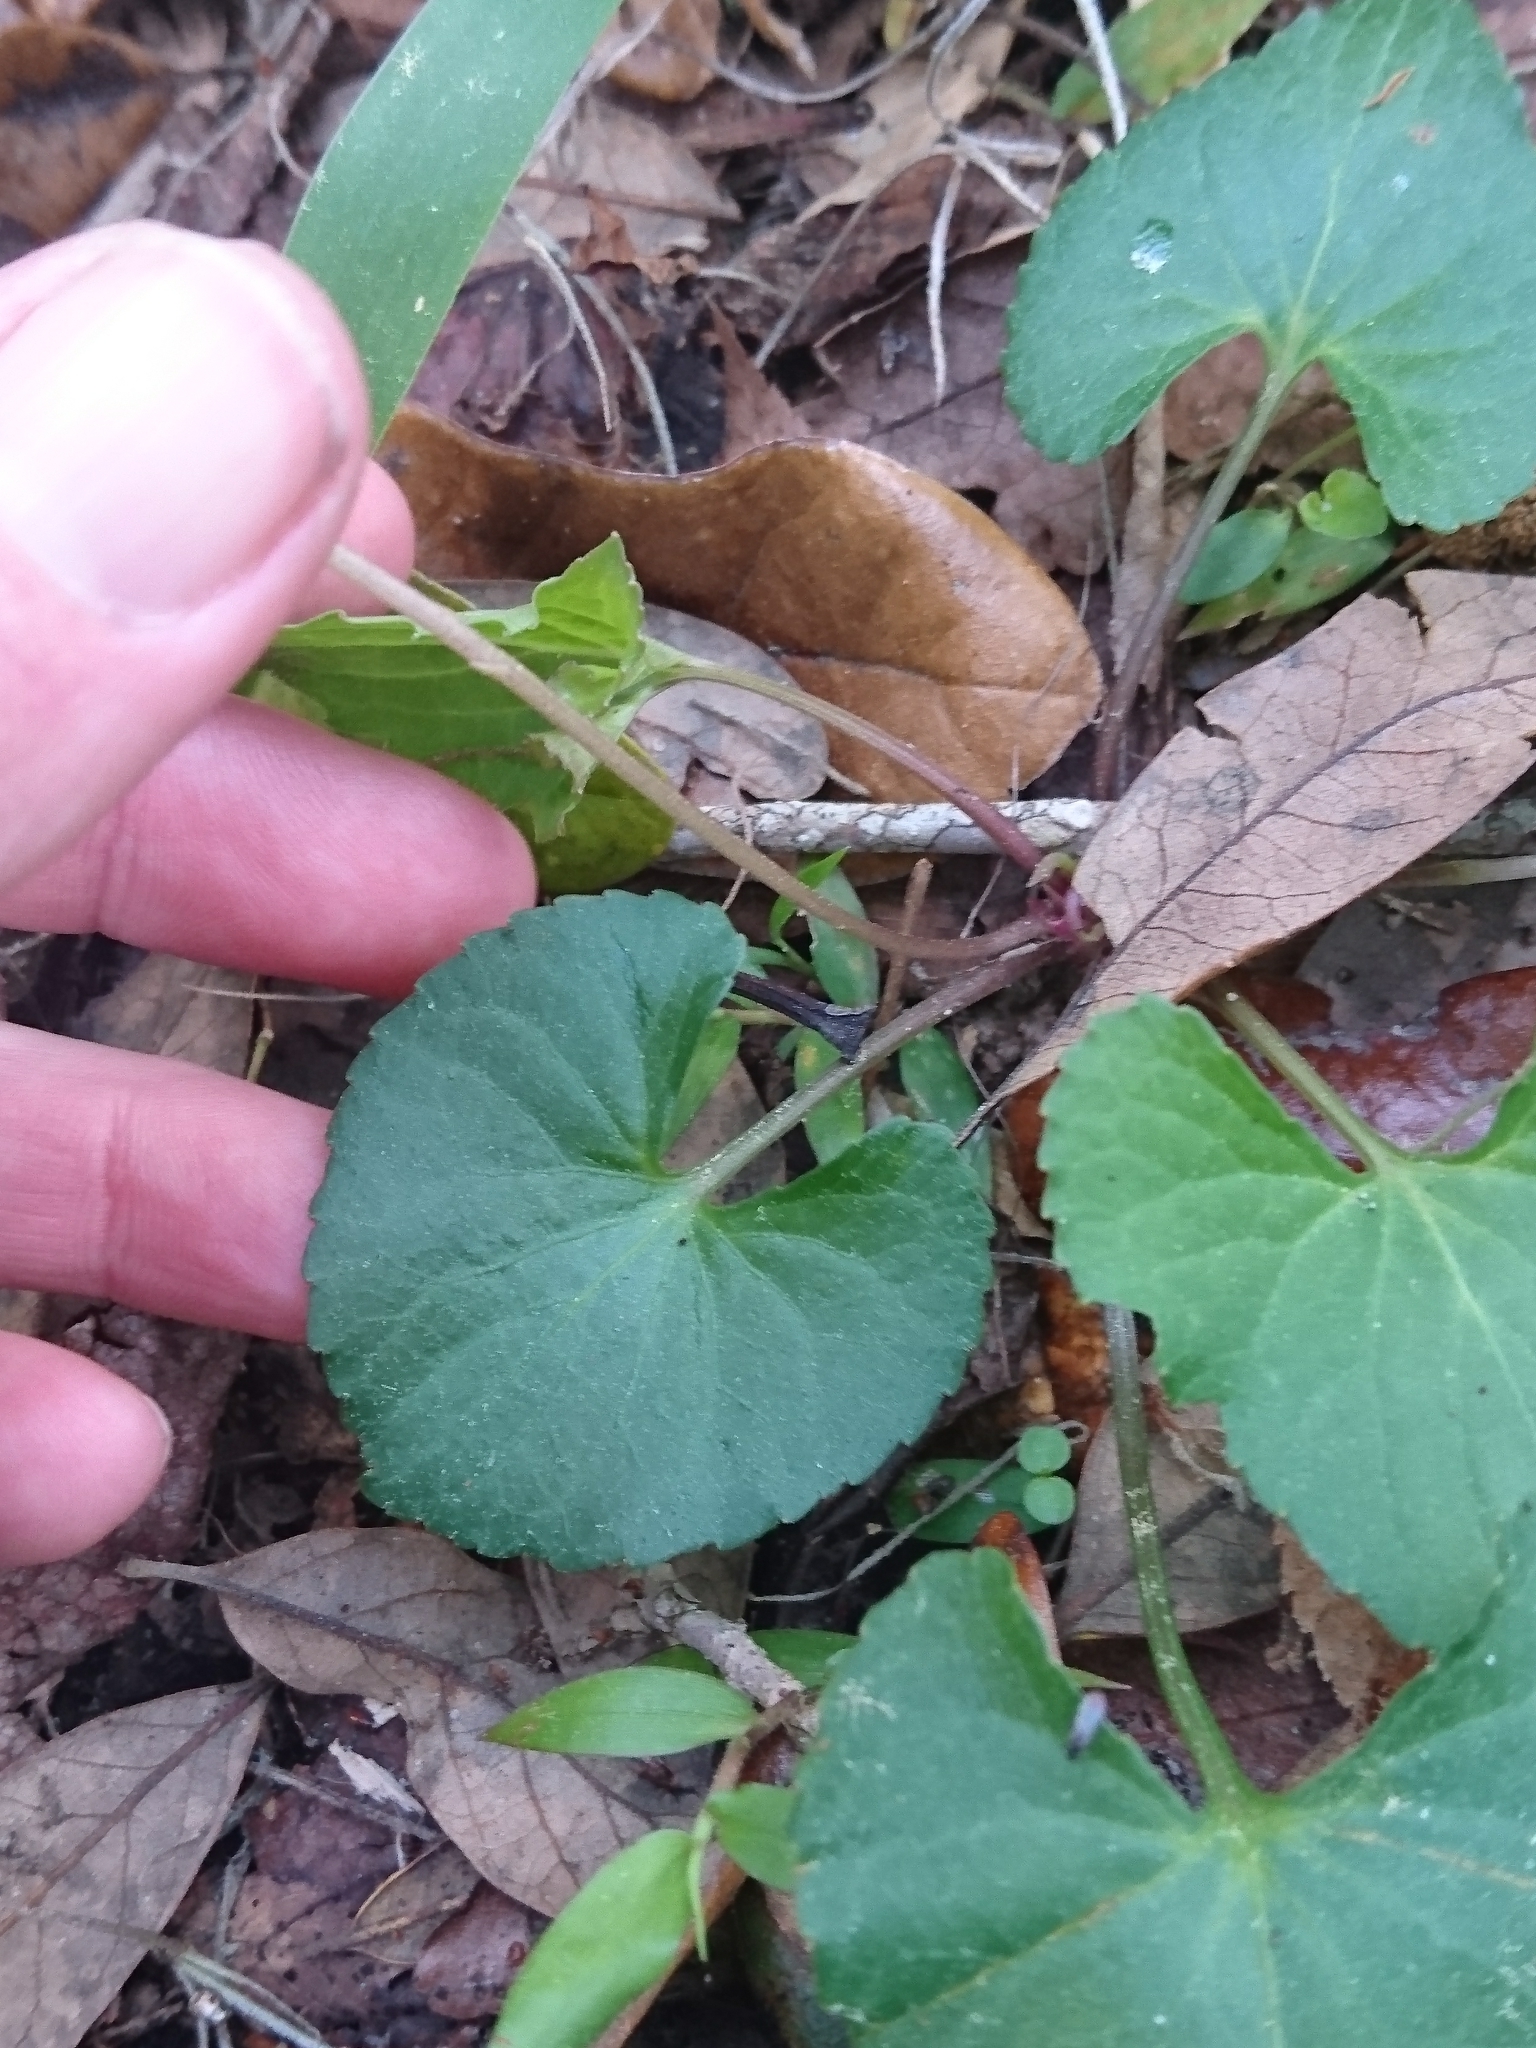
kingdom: Plantae
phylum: Tracheophyta
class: Magnoliopsida
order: Malpighiales
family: Violaceae
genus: Viola
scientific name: Viola floridana
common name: Florida violet
